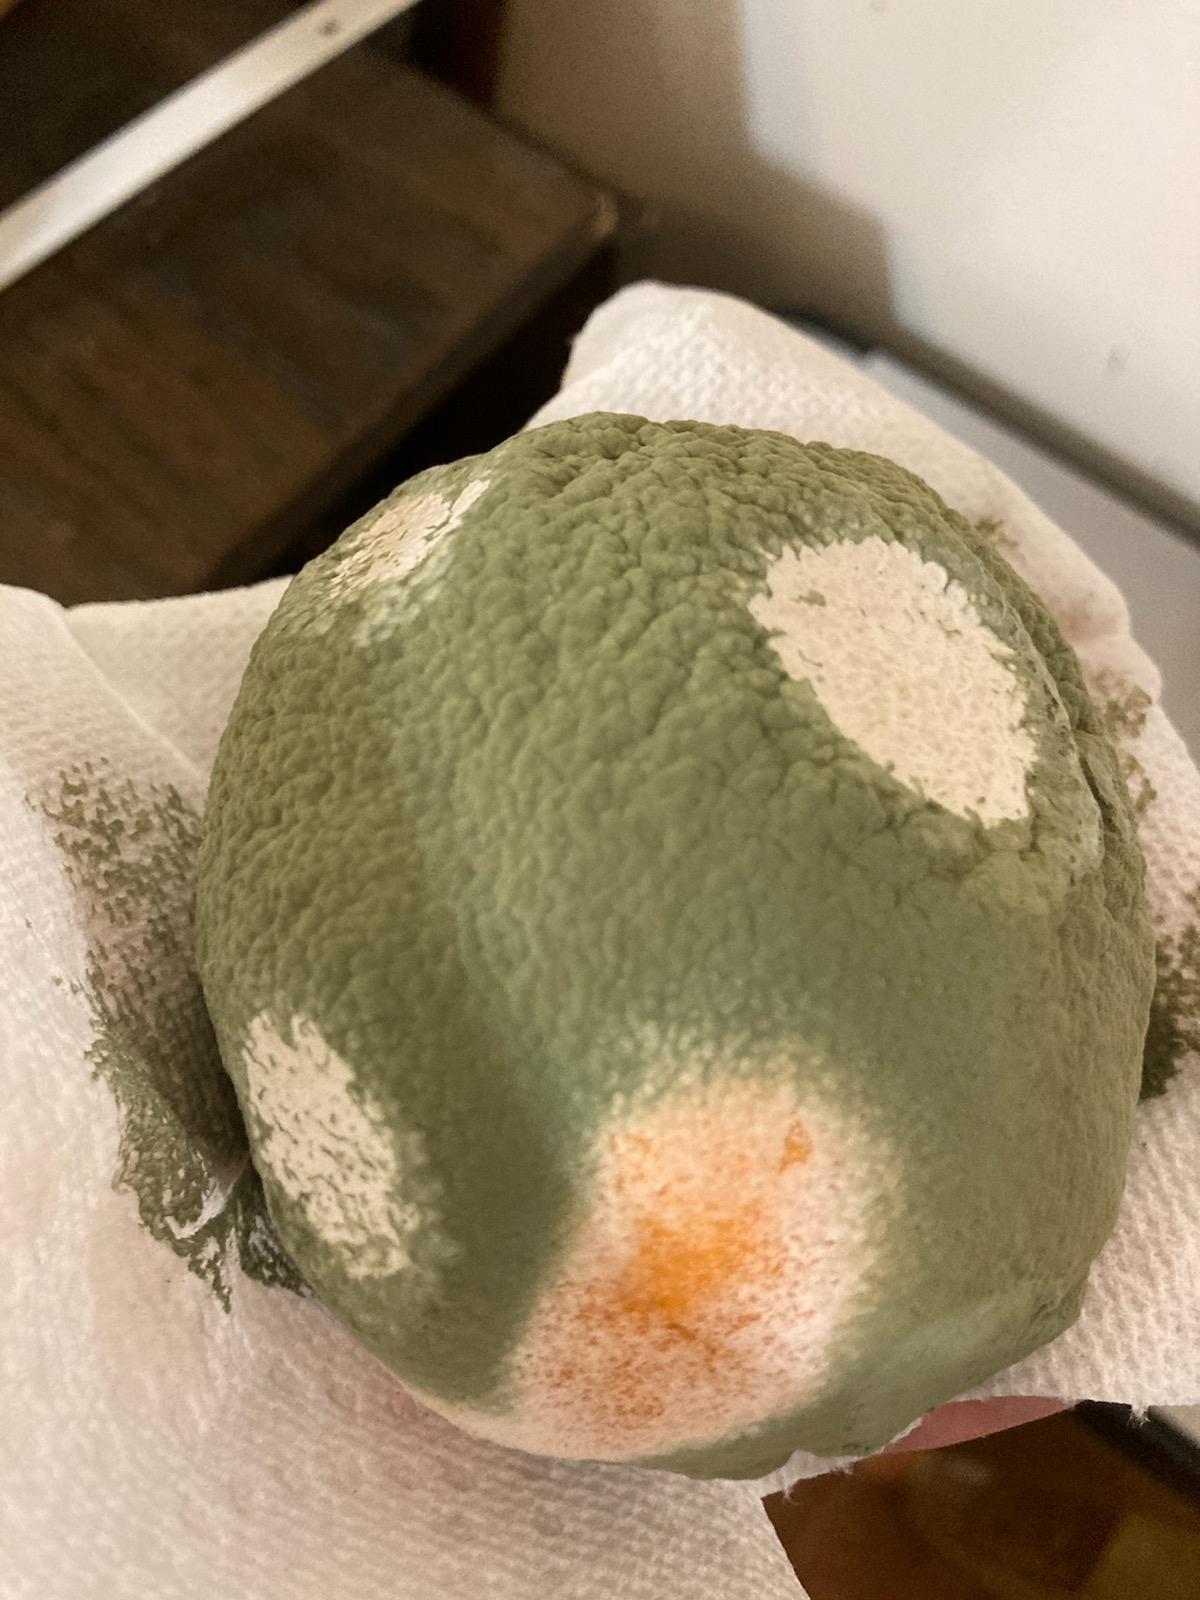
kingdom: Fungi
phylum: Ascomycota
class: Eurotiomycetes
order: Eurotiales
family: Aspergillaceae
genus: Penicillium
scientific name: Penicillium digitatum
